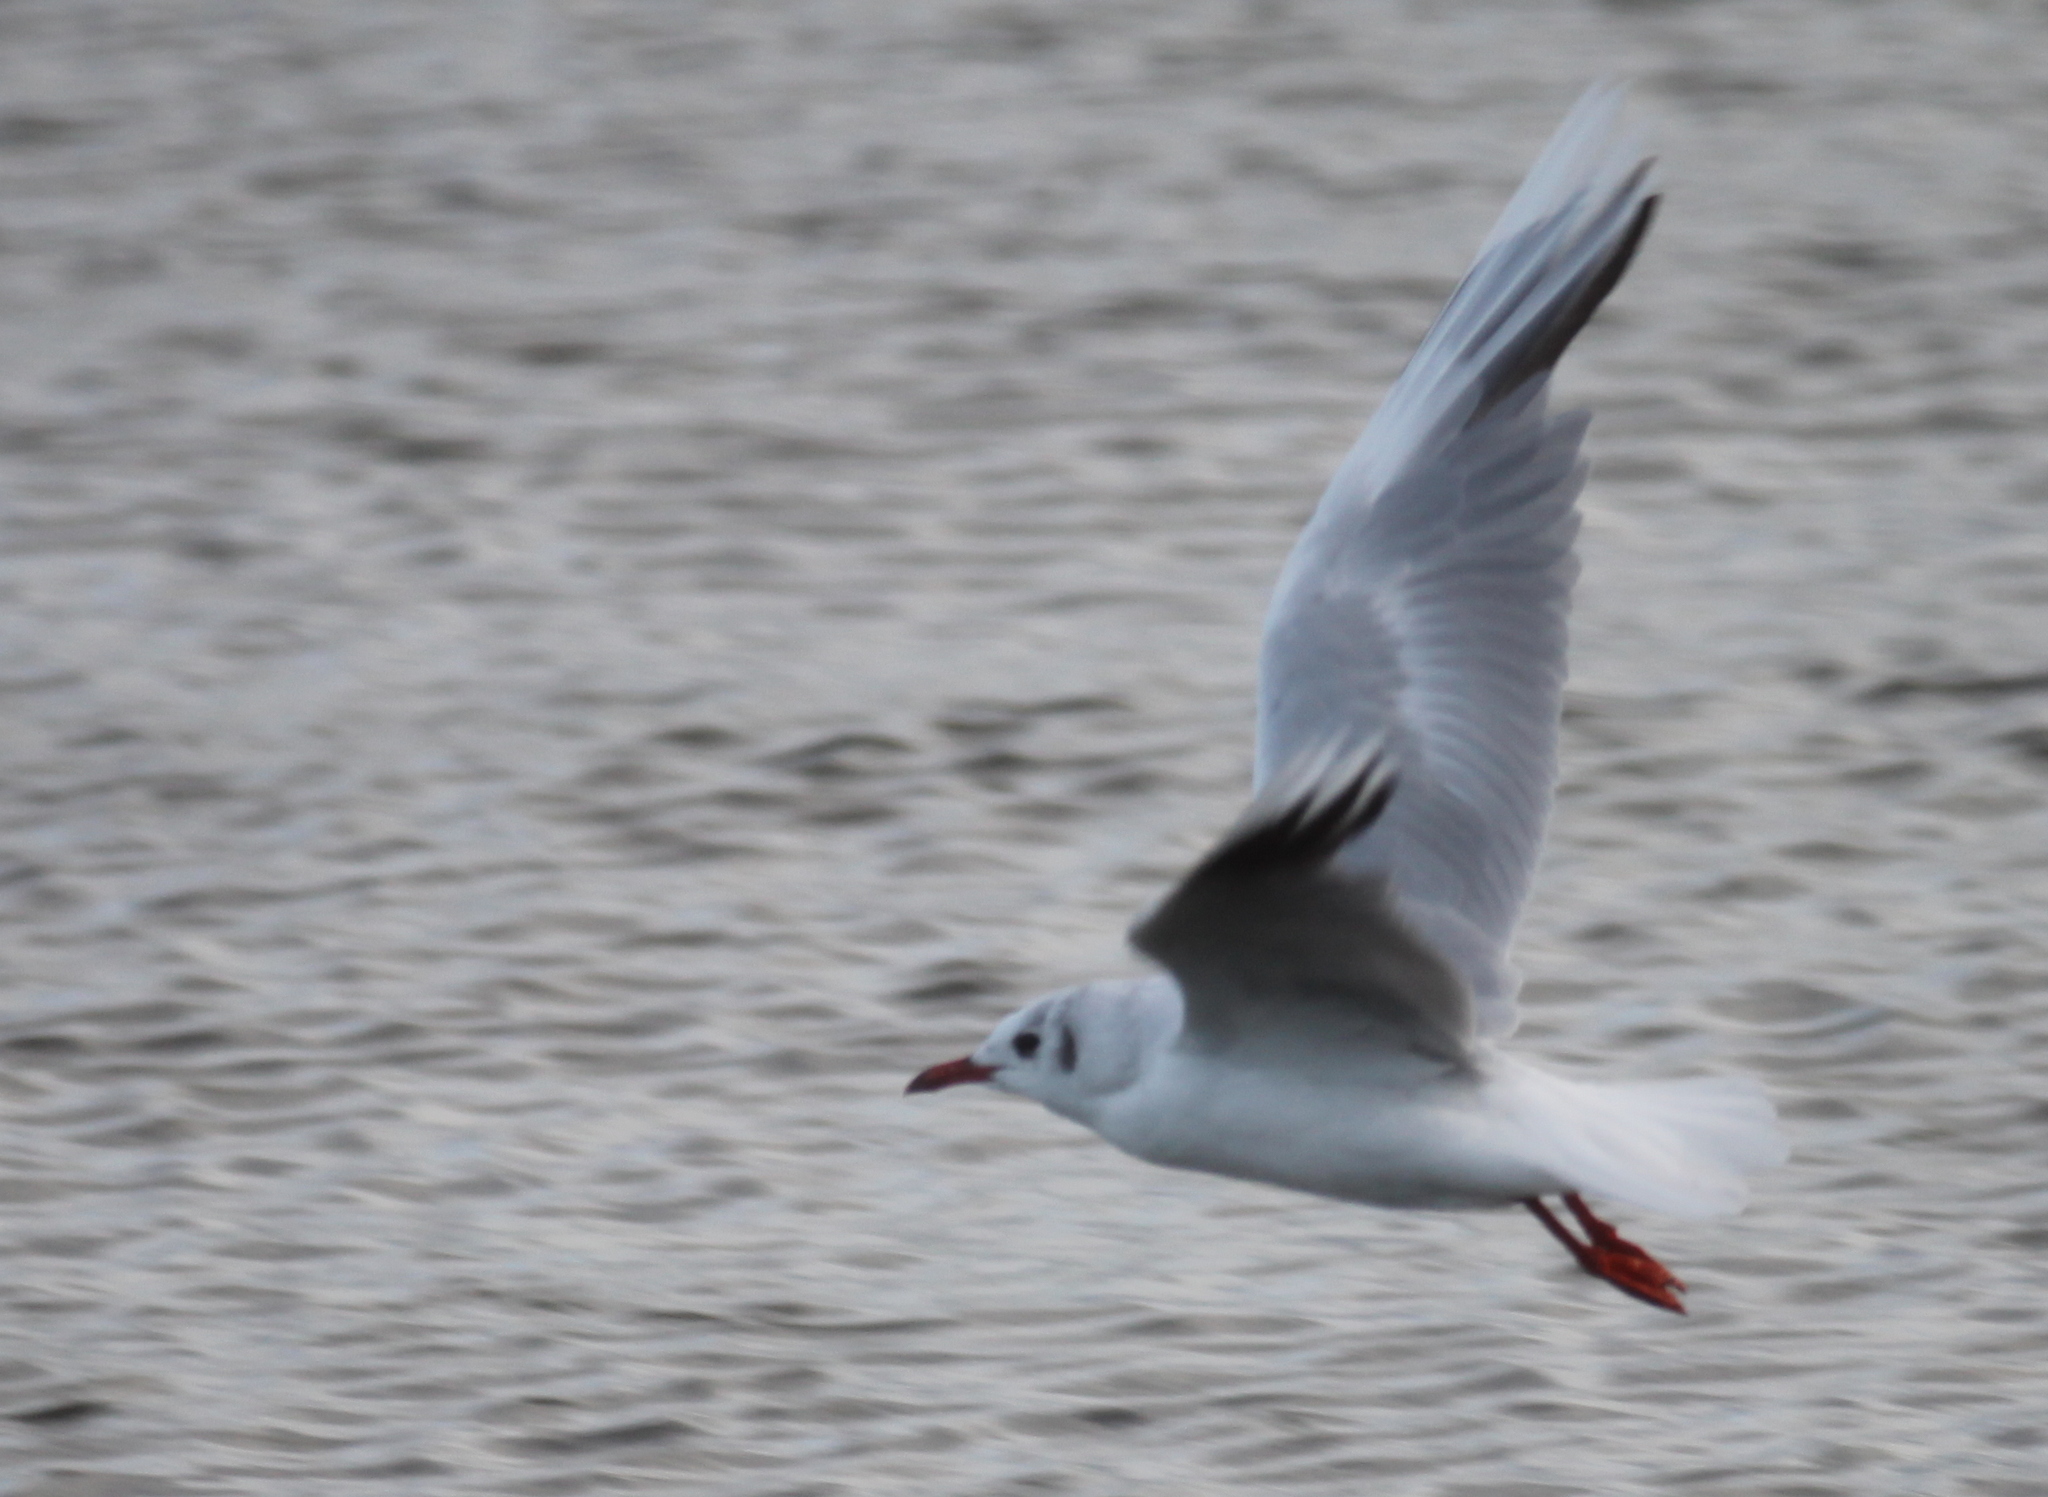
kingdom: Animalia
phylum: Chordata
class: Aves
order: Charadriiformes
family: Laridae
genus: Chroicocephalus
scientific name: Chroicocephalus maculipennis
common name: Brown-hooded gull
